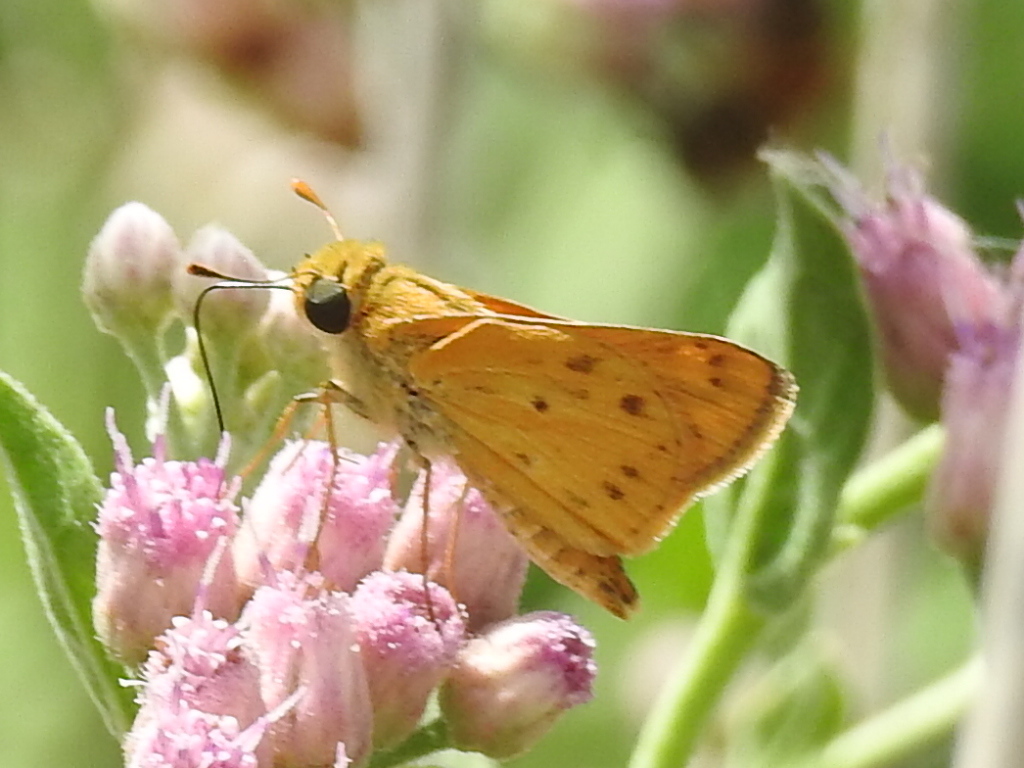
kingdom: Animalia
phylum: Arthropoda
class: Insecta
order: Lepidoptera
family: Hesperiidae
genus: Hylephila
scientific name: Hylephila phyleus
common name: Fiery skipper
